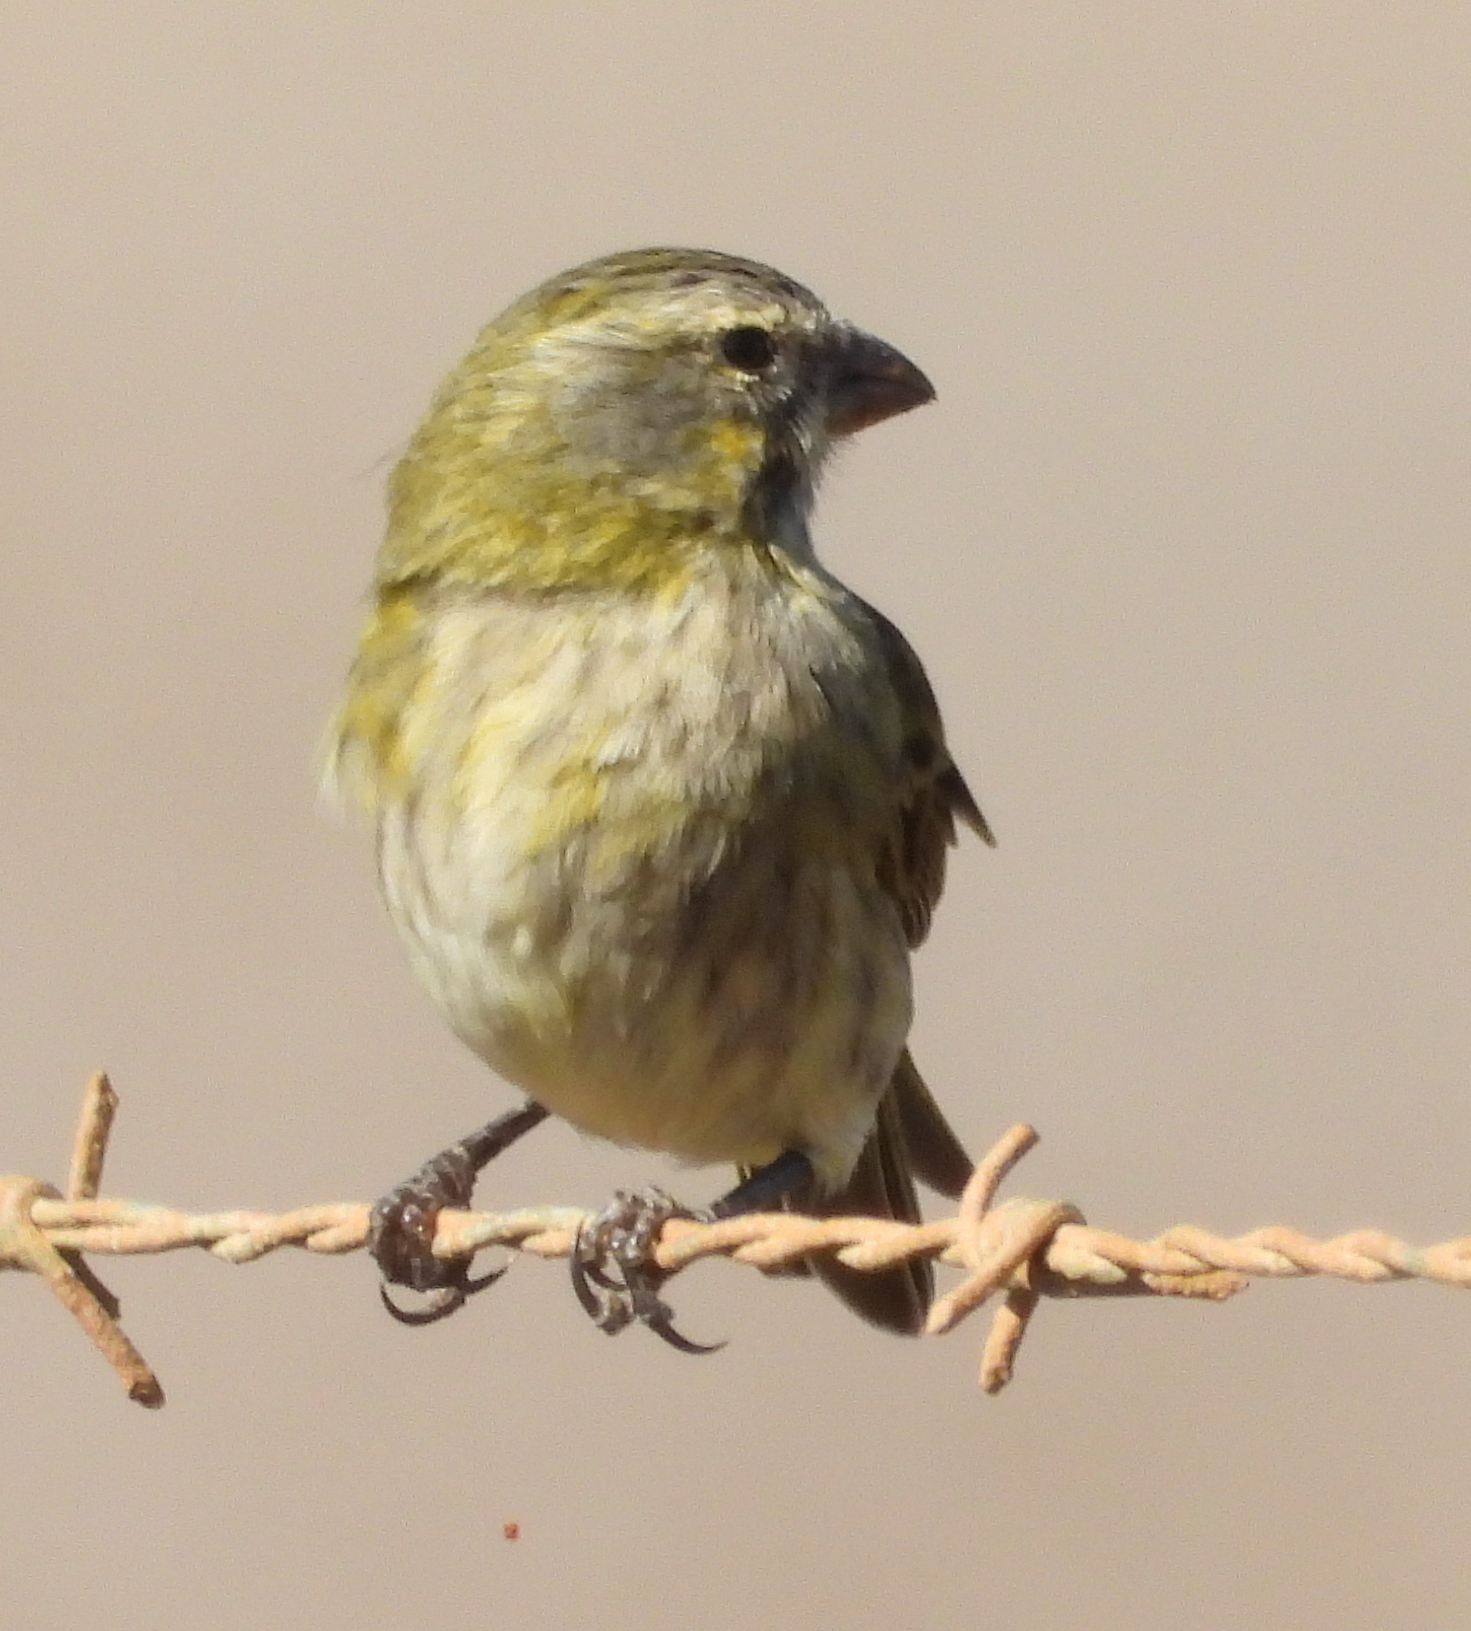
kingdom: Animalia
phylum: Chordata
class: Aves
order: Passeriformes
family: Fringillidae
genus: Crithagra
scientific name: Crithagra flaviventris
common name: Yellow canary
